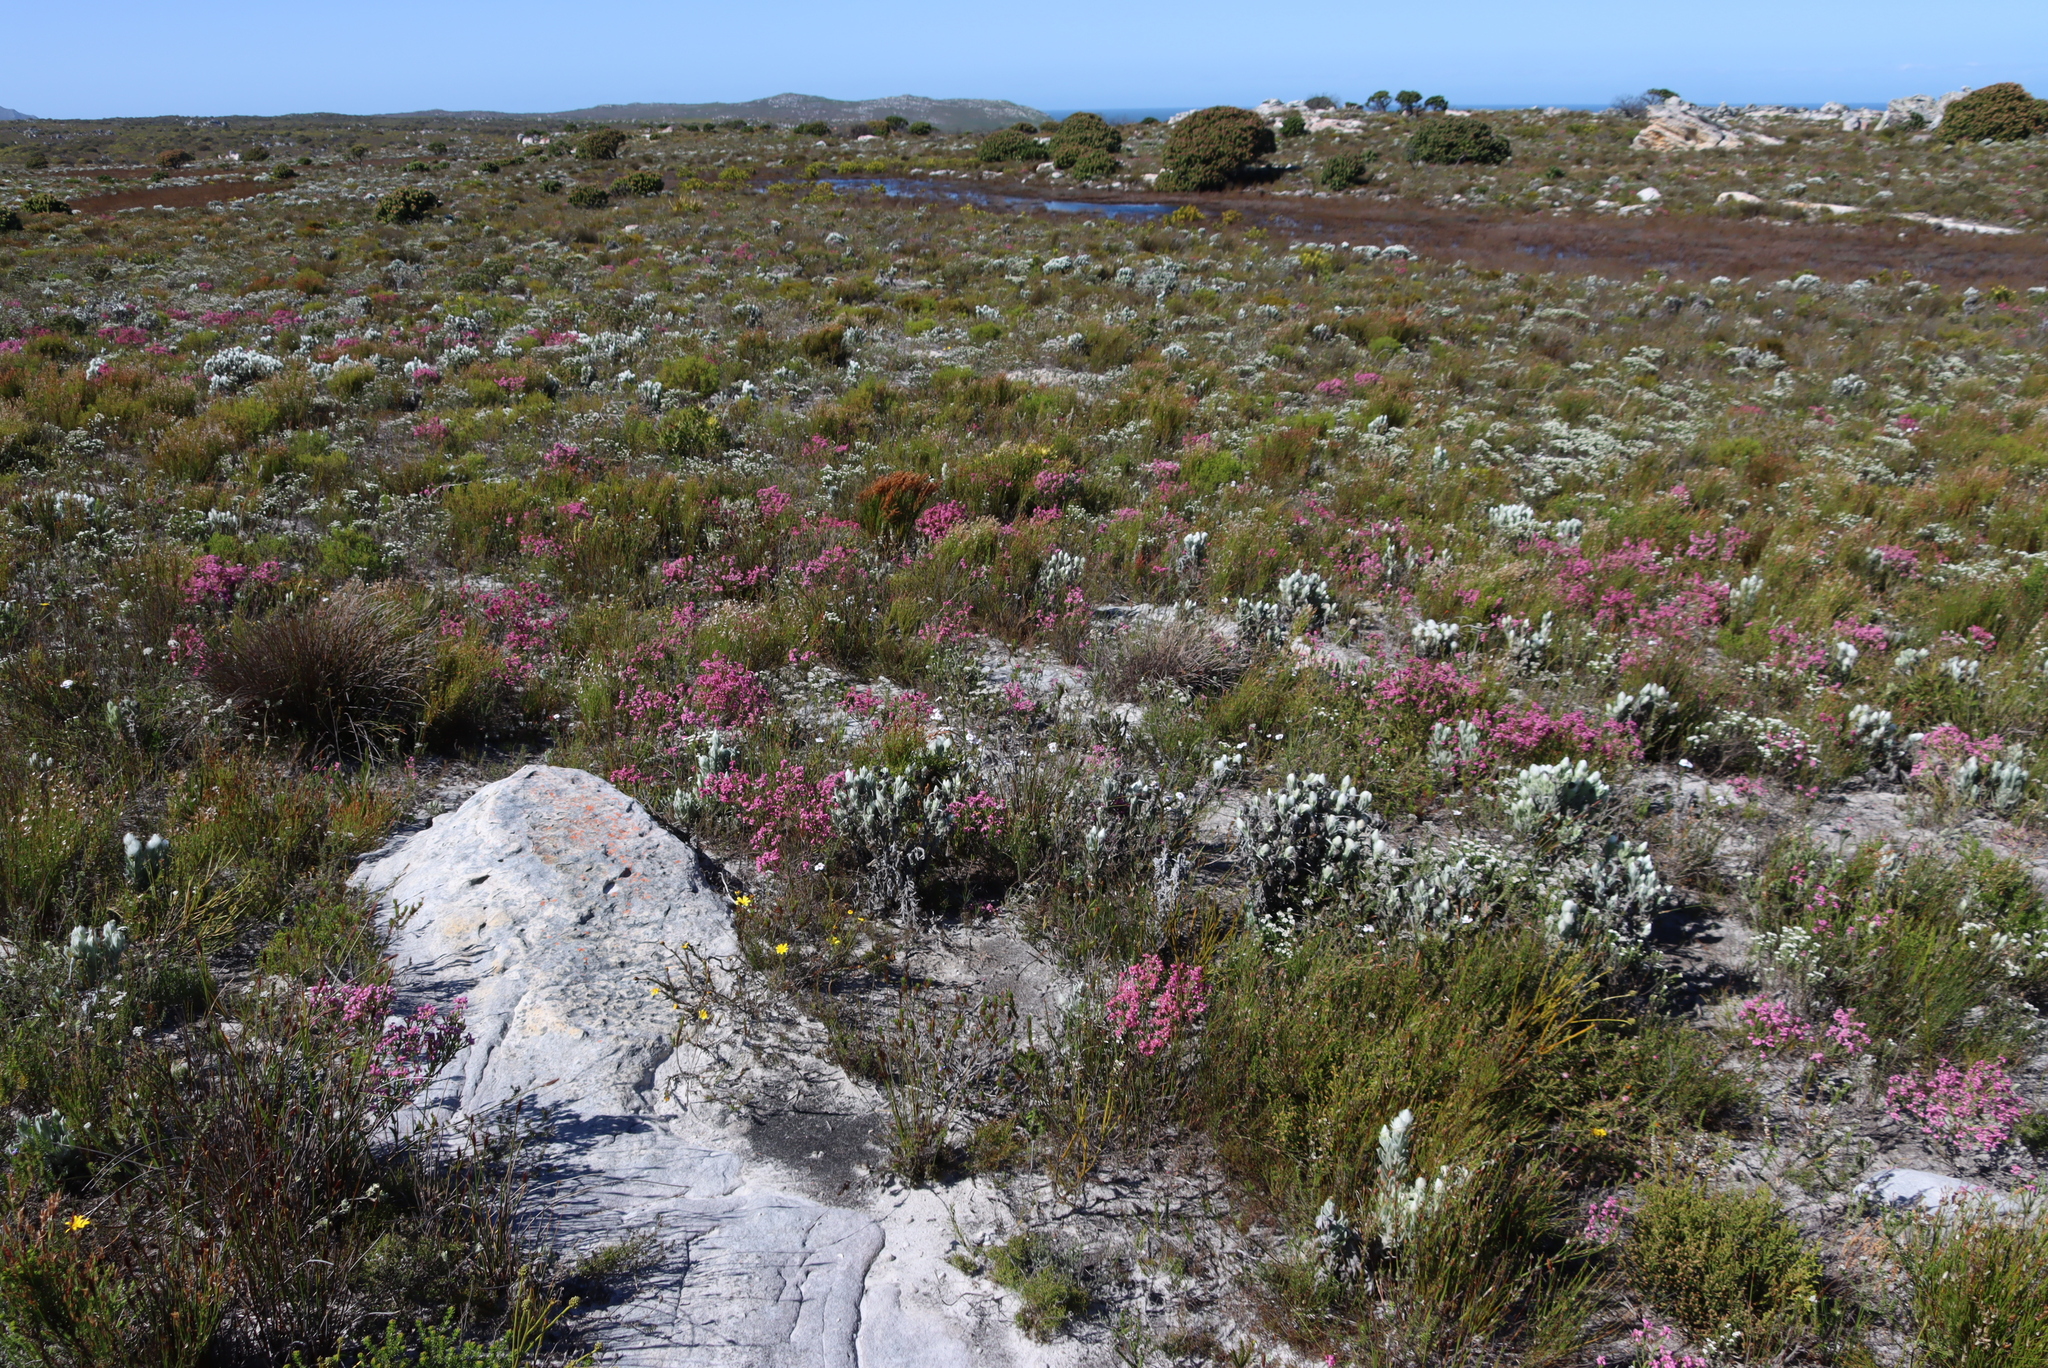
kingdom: Plantae
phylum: Tracheophyta
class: Magnoliopsida
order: Ericales
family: Ericaceae
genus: Erica
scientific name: Erica corifolia
